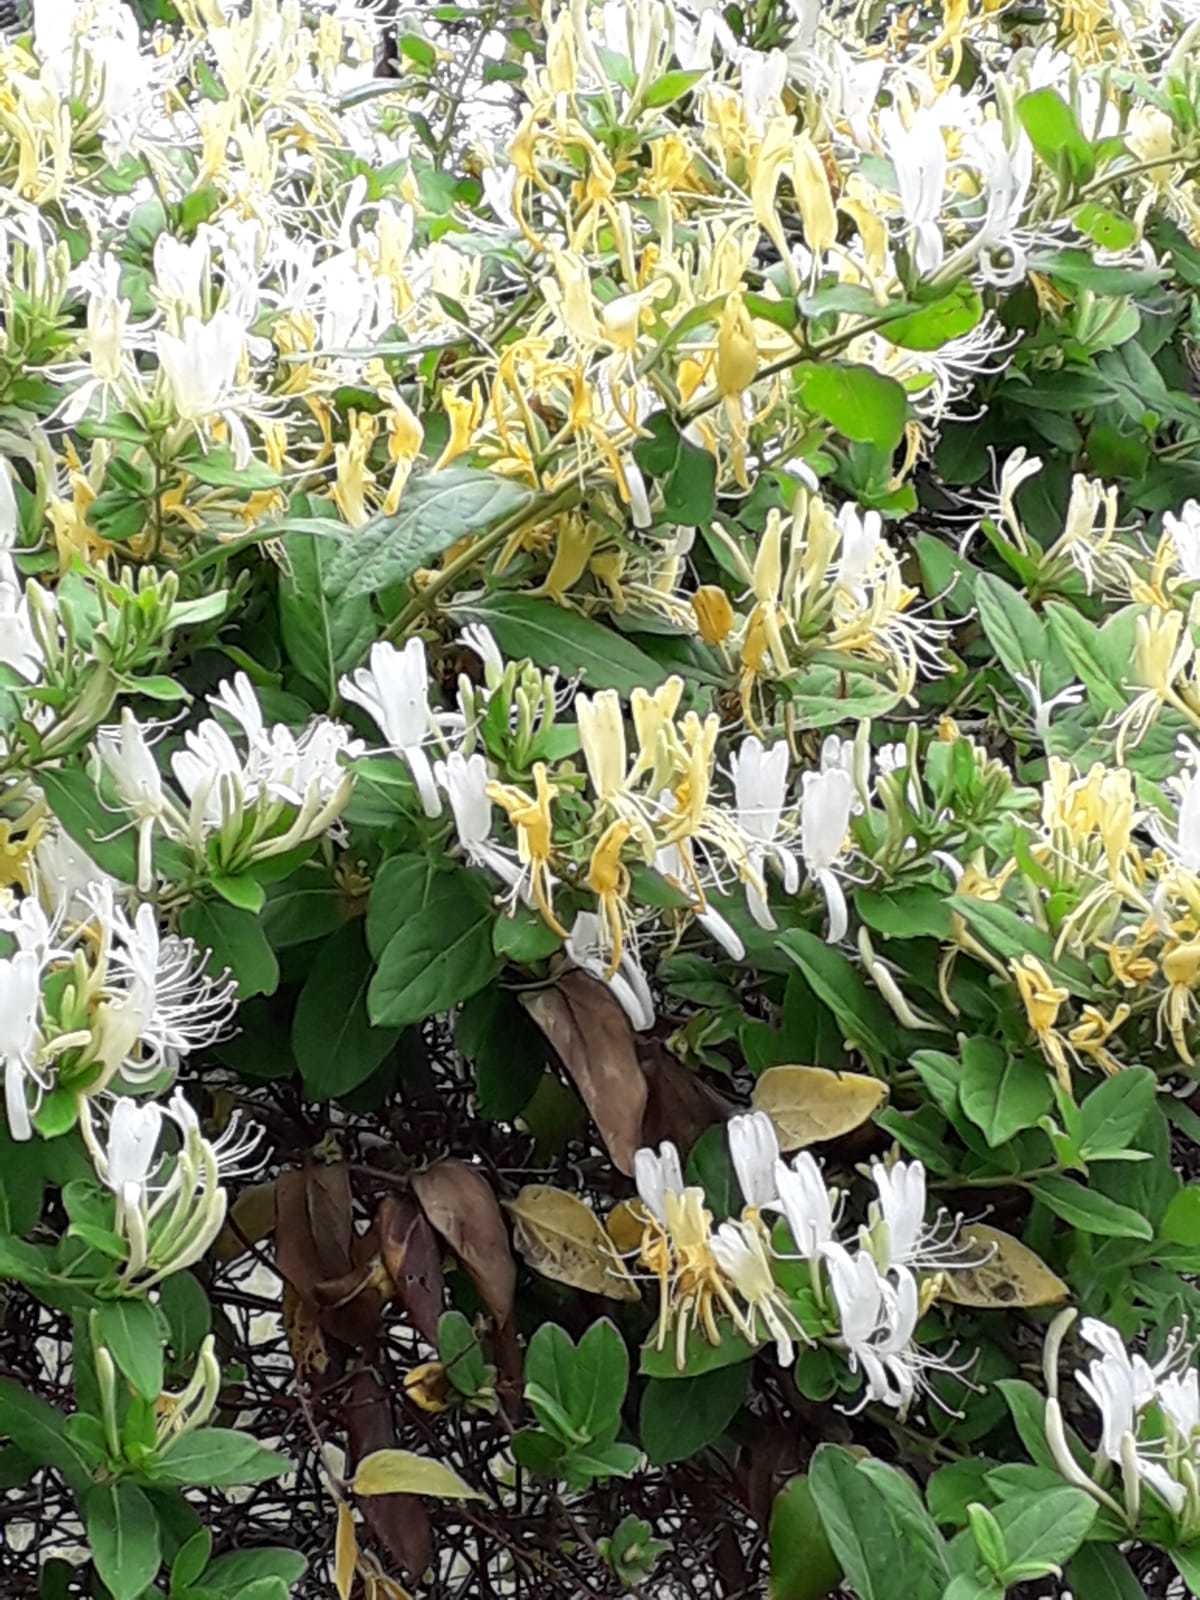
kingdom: Plantae
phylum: Tracheophyta
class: Magnoliopsida
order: Dipsacales
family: Caprifoliaceae
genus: Lonicera
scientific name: Lonicera japonica
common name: Japanese honeysuckle
